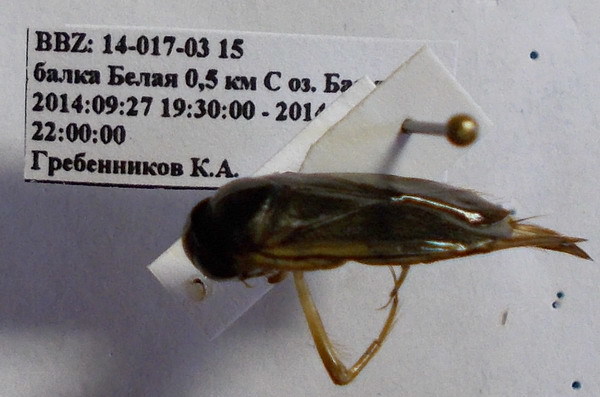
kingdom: Animalia
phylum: Arthropoda
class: Insecta
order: Hemiptera
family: Corixidae
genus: Corixa
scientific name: Corixa dentipes
